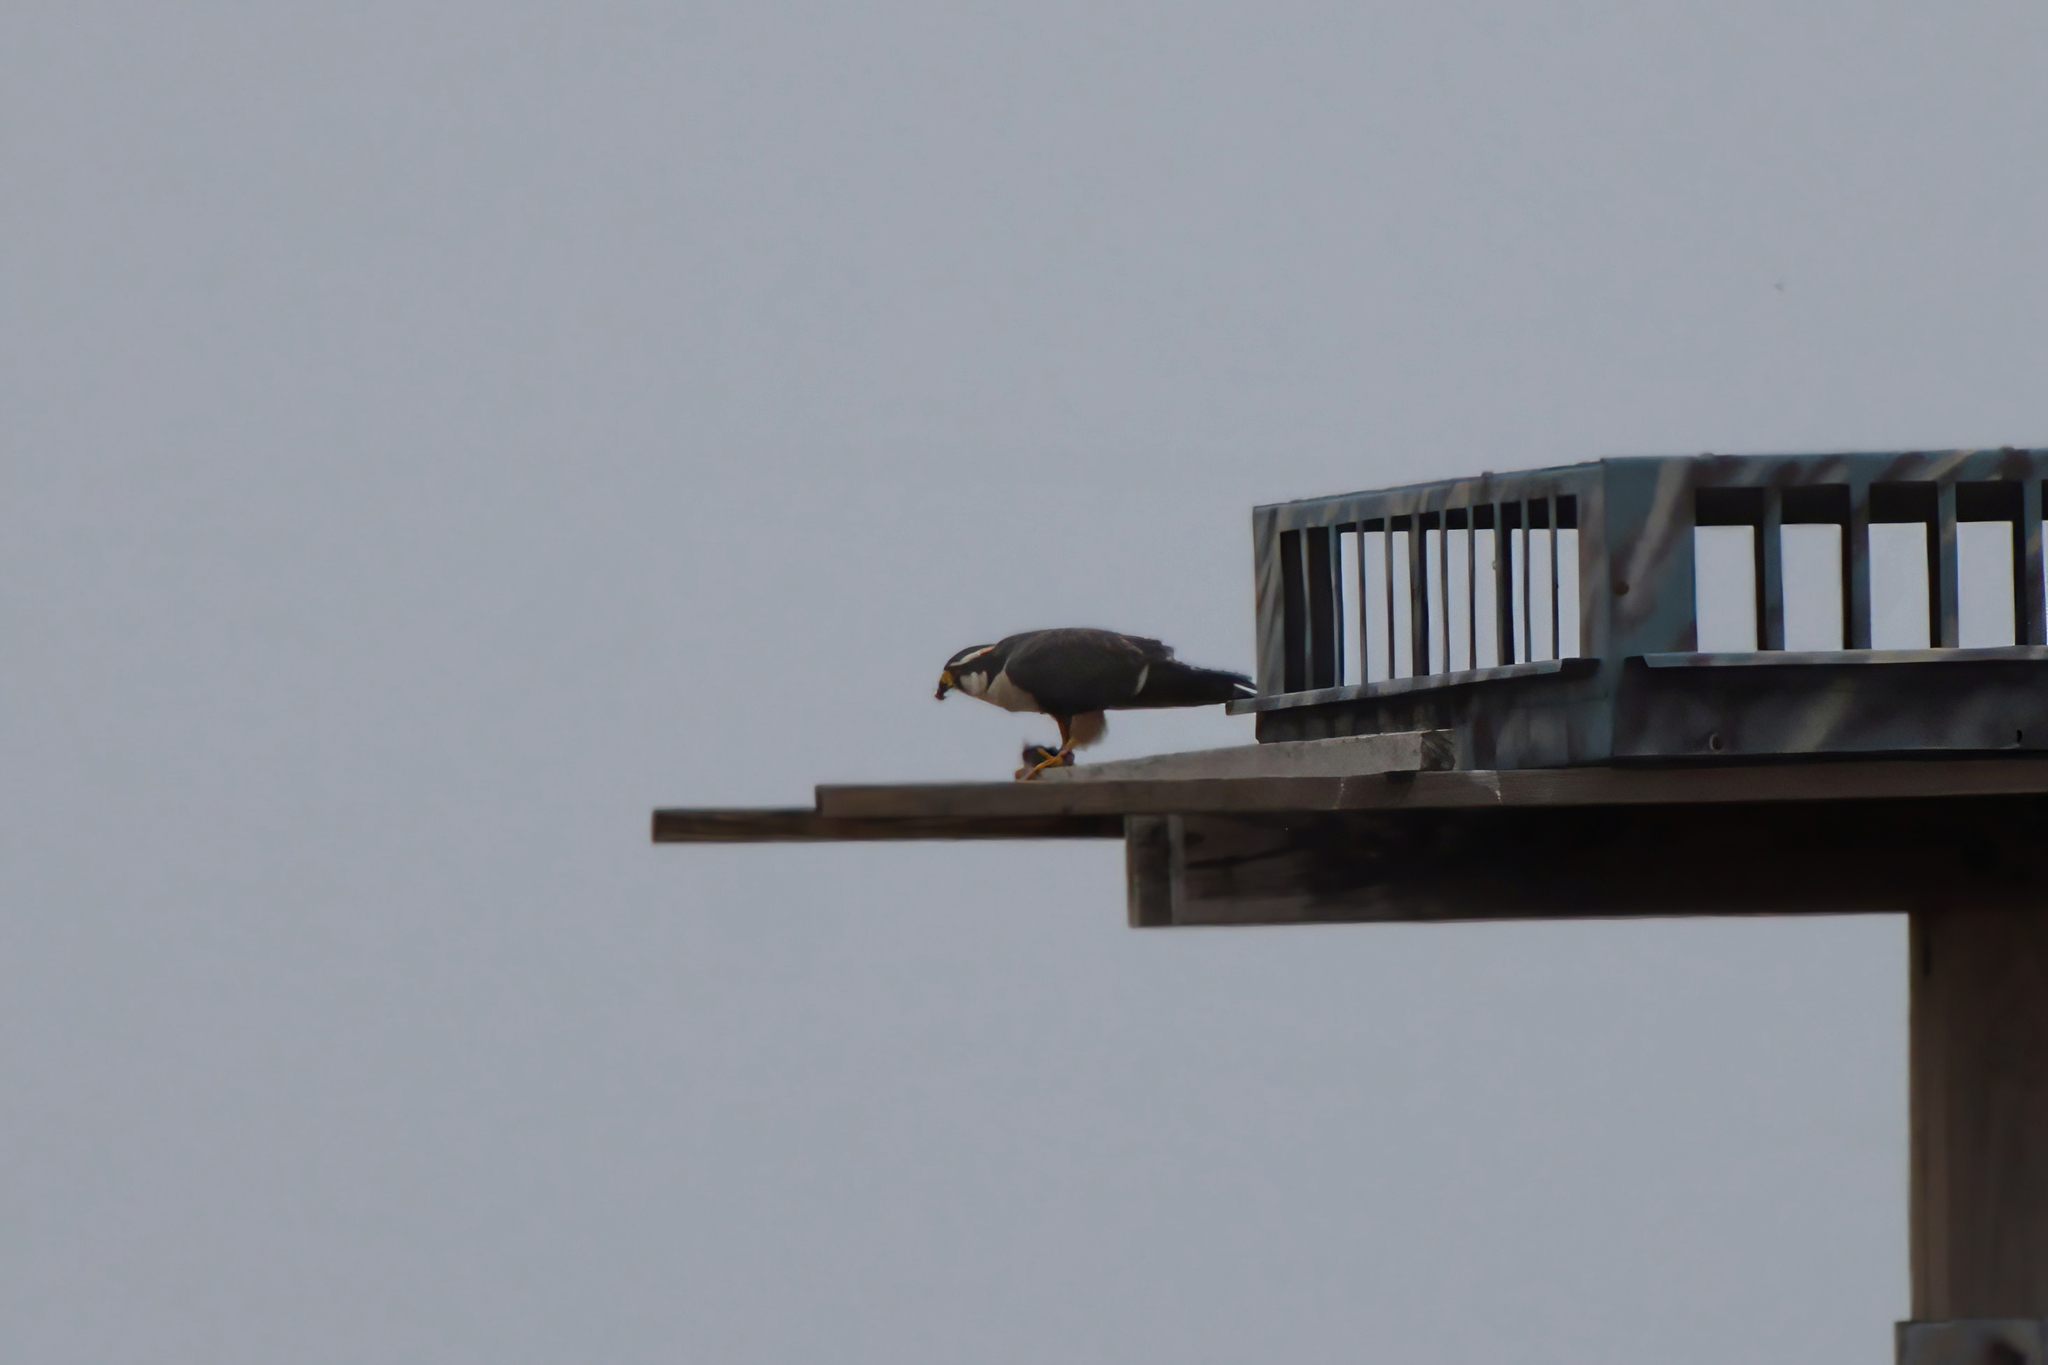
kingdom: Animalia
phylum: Chordata
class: Aves
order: Falconiformes
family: Falconidae
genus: Falco
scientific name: Falco femoralis
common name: Aplomado falcon
